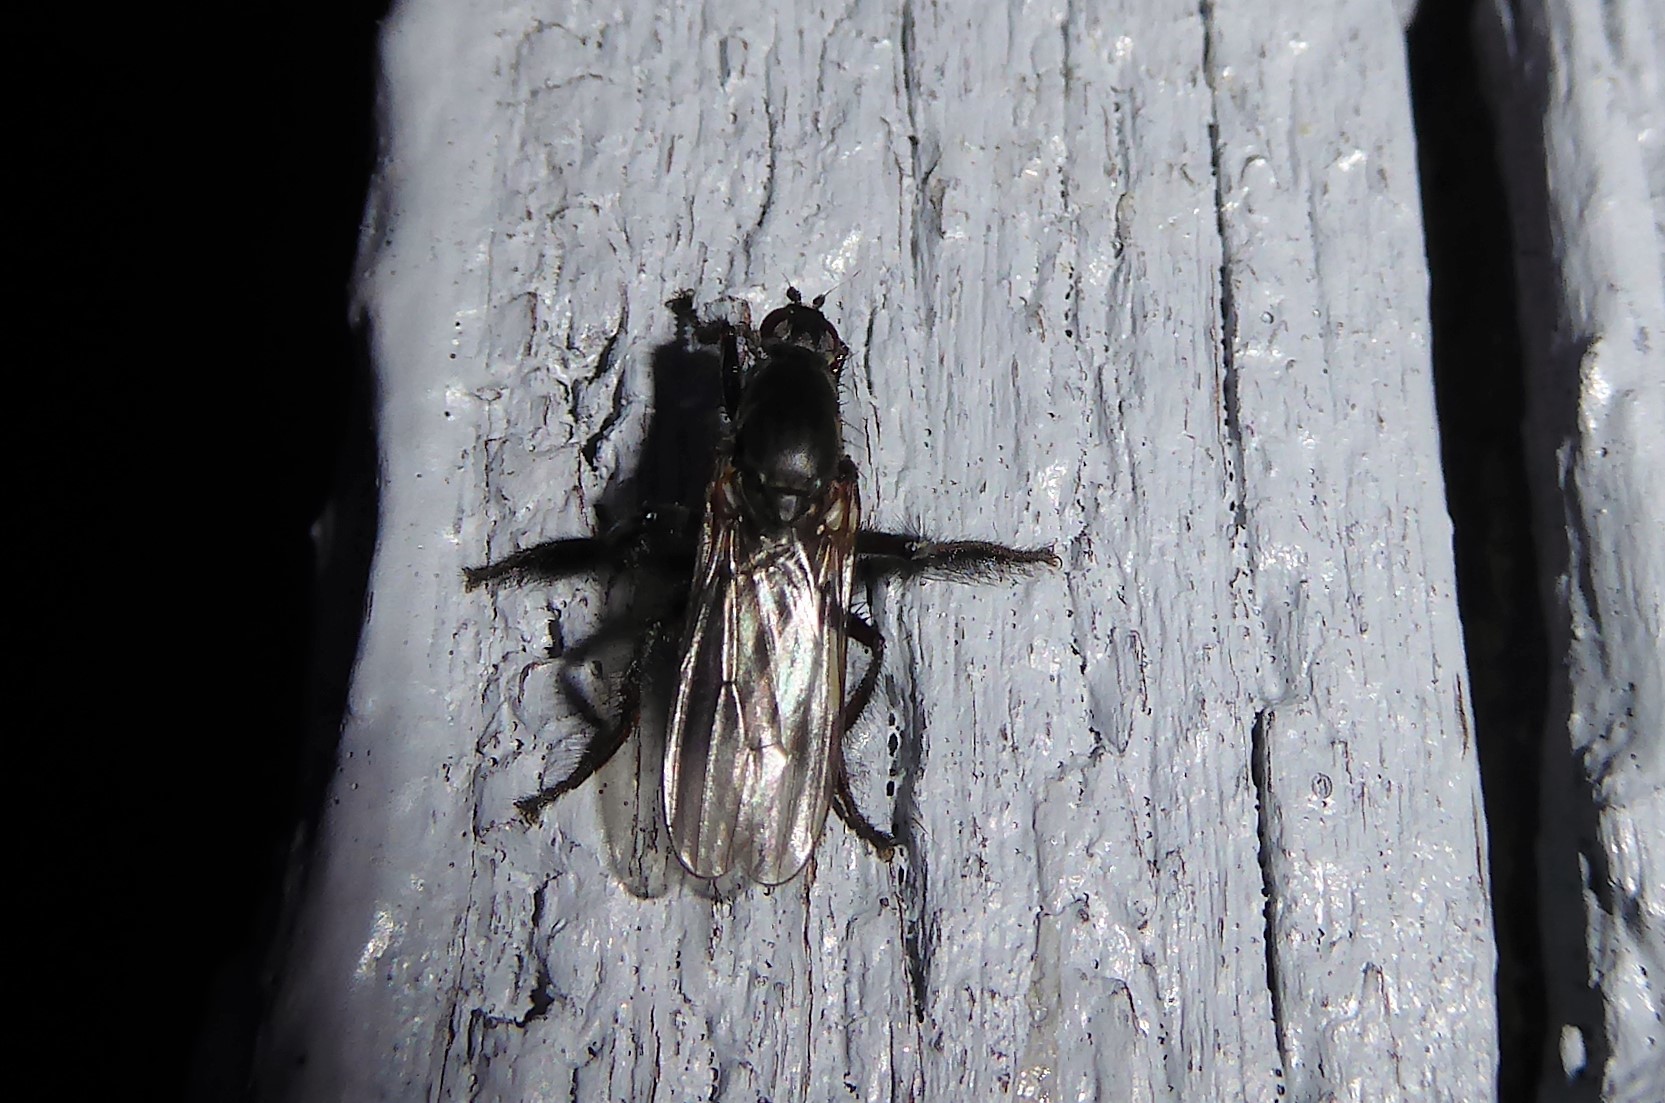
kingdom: Animalia
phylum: Arthropoda
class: Insecta
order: Diptera
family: Coelopidae
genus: Chaetocoelopa
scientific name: Chaetocoelopa littoralis
